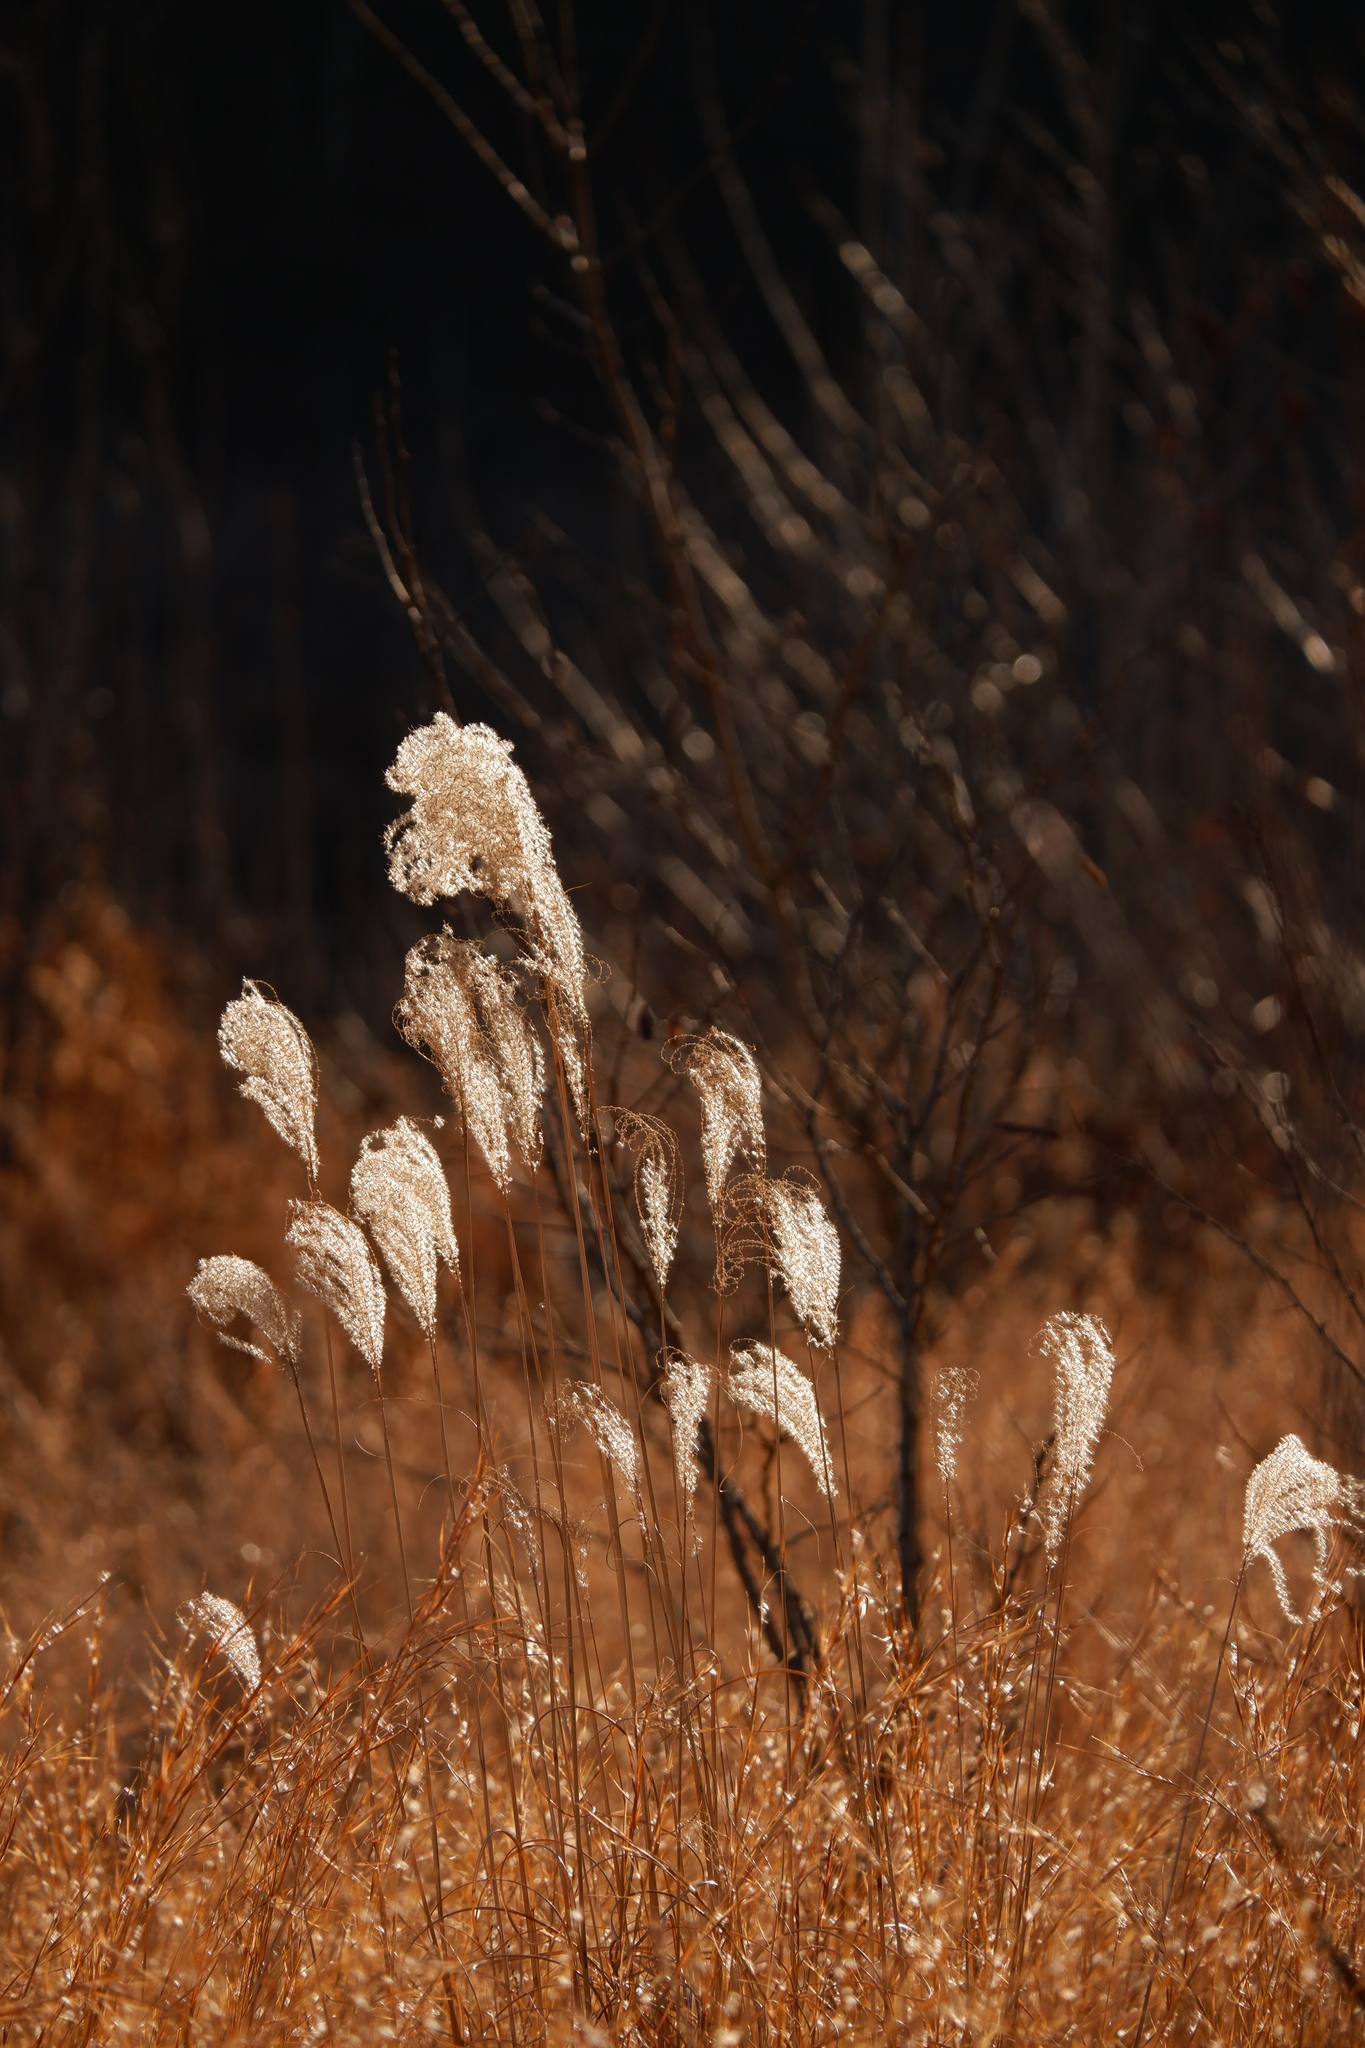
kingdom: Plantae
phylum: Tracheophyta
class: Liliopsida
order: Poales
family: Poaceae
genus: Miscanthus
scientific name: Miscanthus sinensis
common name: Chinese silvergrass
